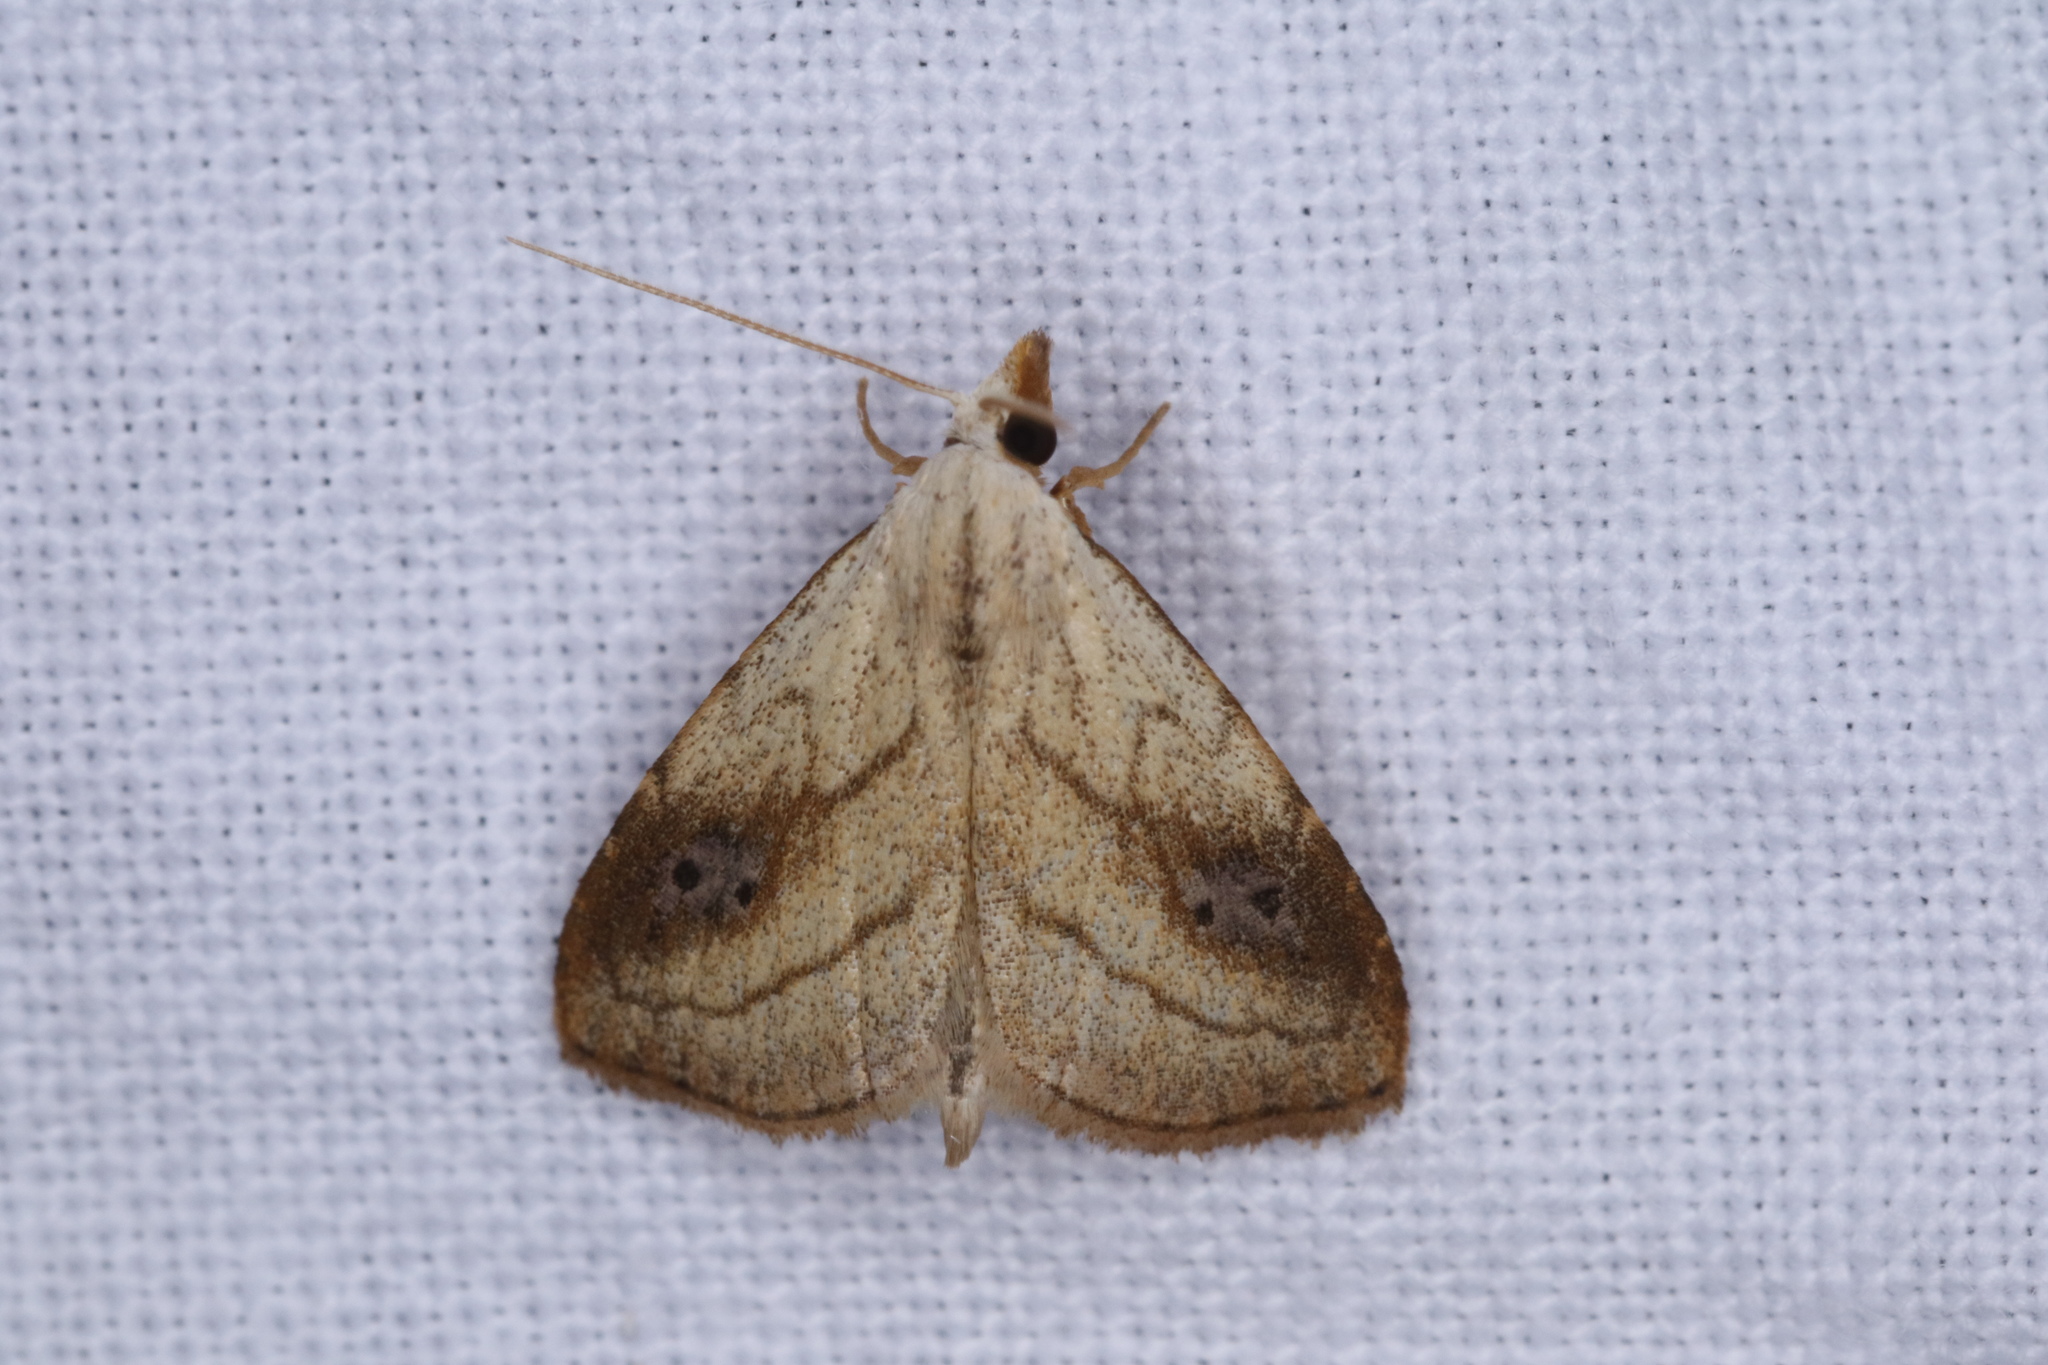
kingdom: Animalia
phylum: Arthropoda
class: Insecta
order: Lepidoptera
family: Erebidae
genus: Rivula
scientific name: Rivula propinqualis
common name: Spotted grass moth
